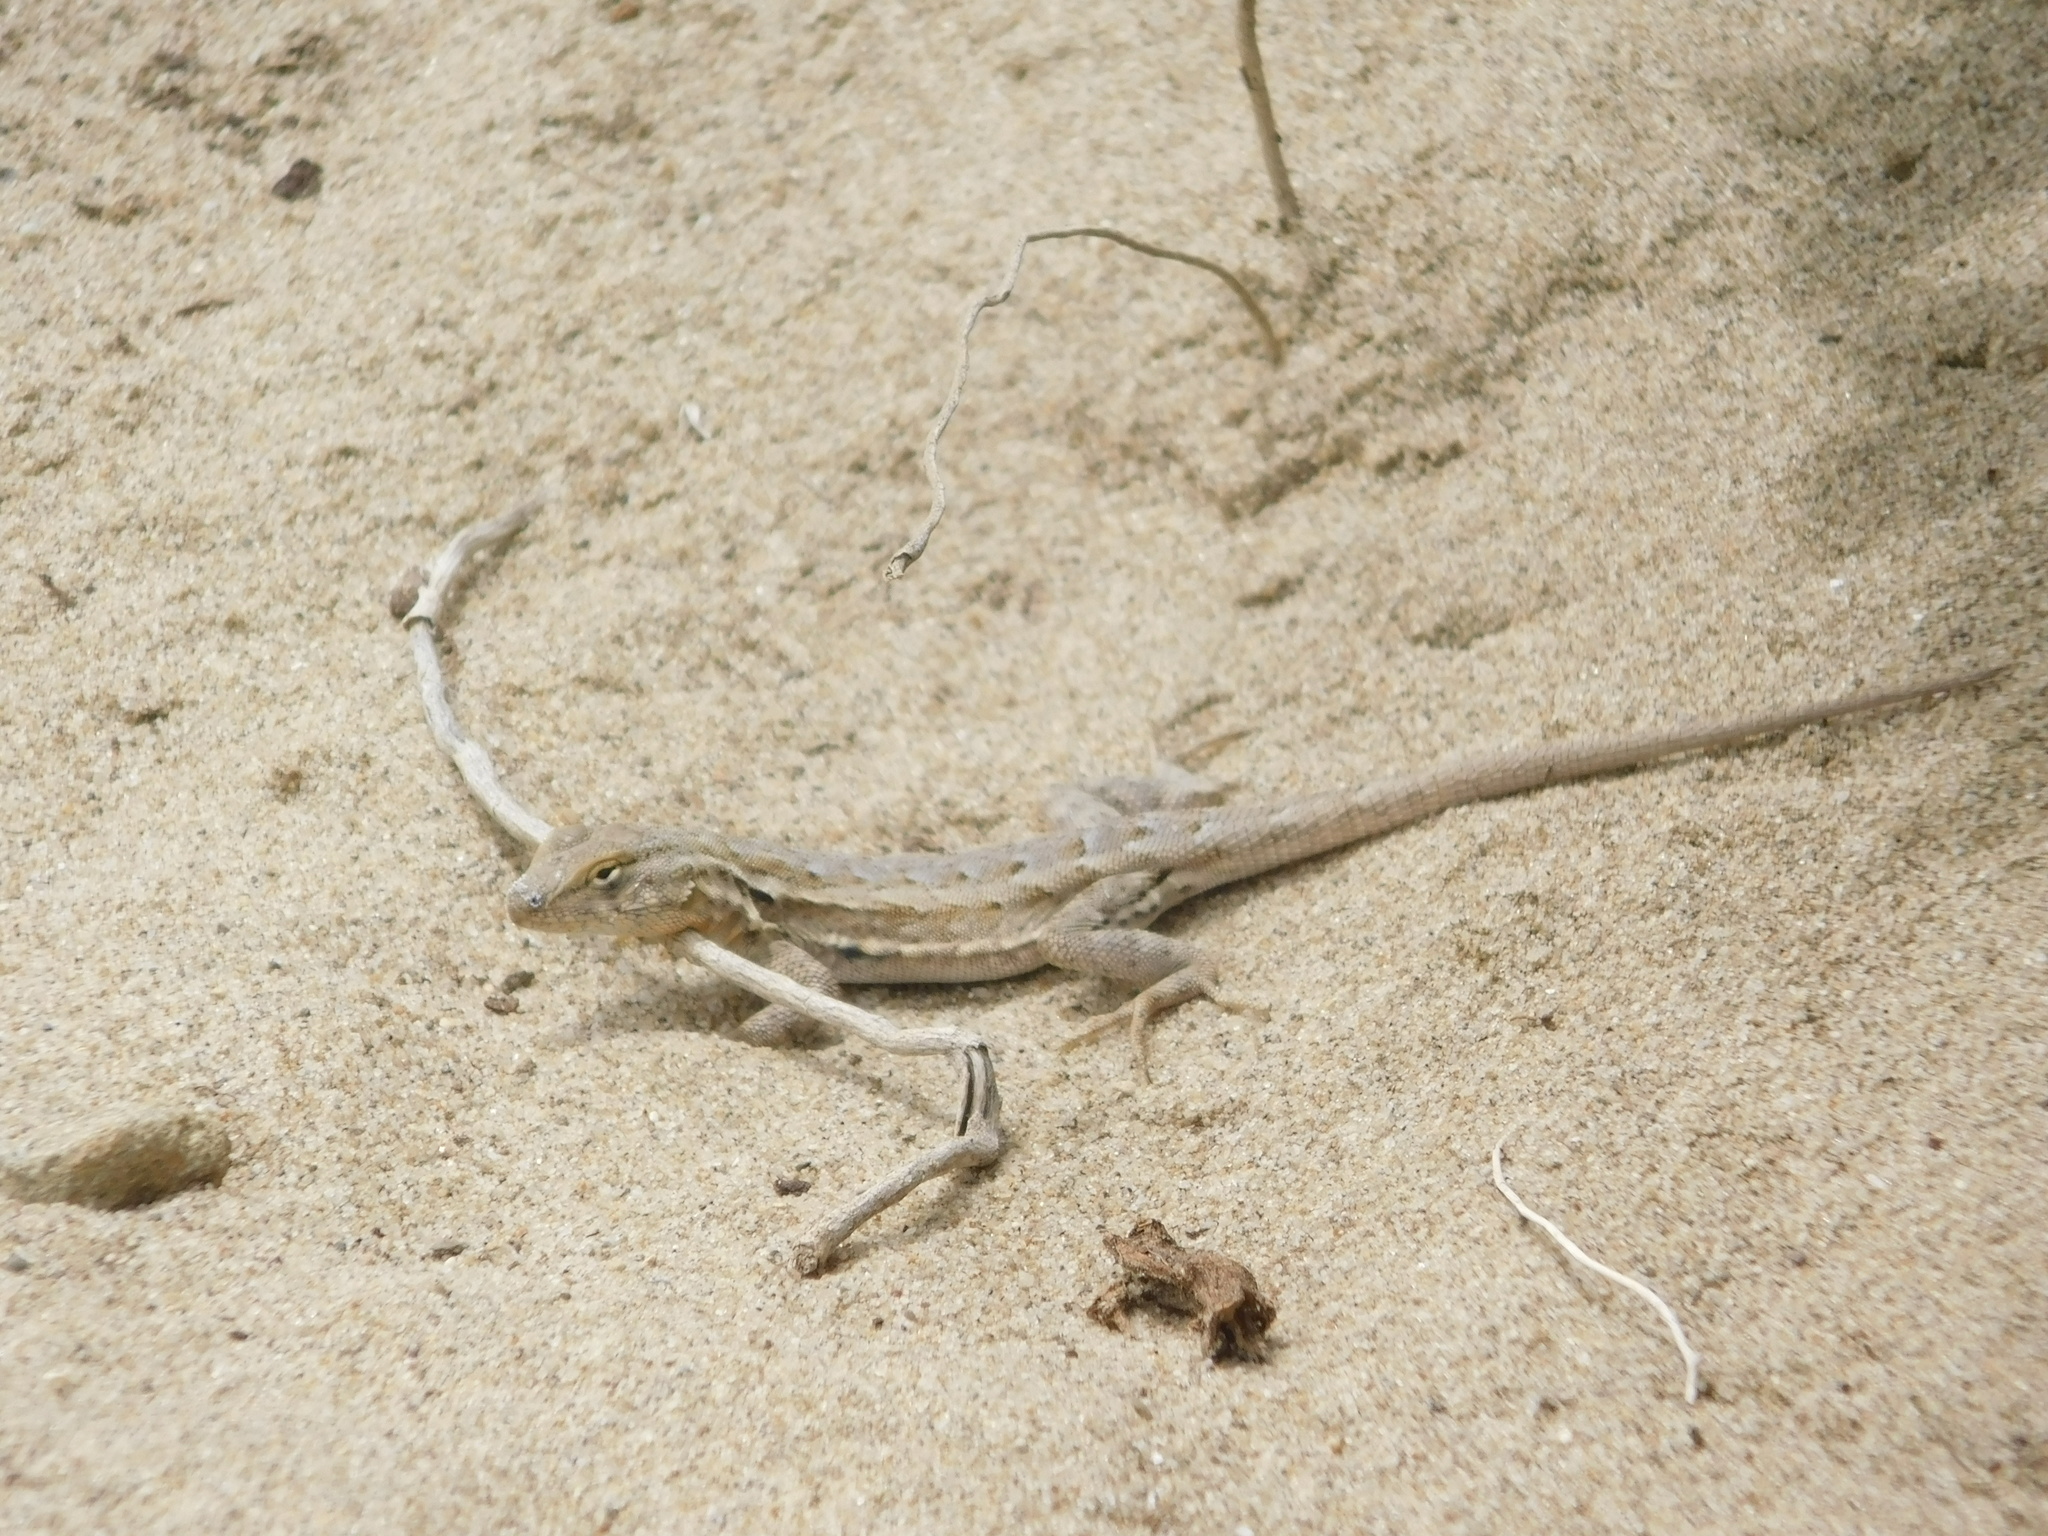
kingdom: Animalia
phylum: Chordata
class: Squamata
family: Phrynosomatidae
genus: Uta
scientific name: Uta stansburiana
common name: Side-blotched lizard
